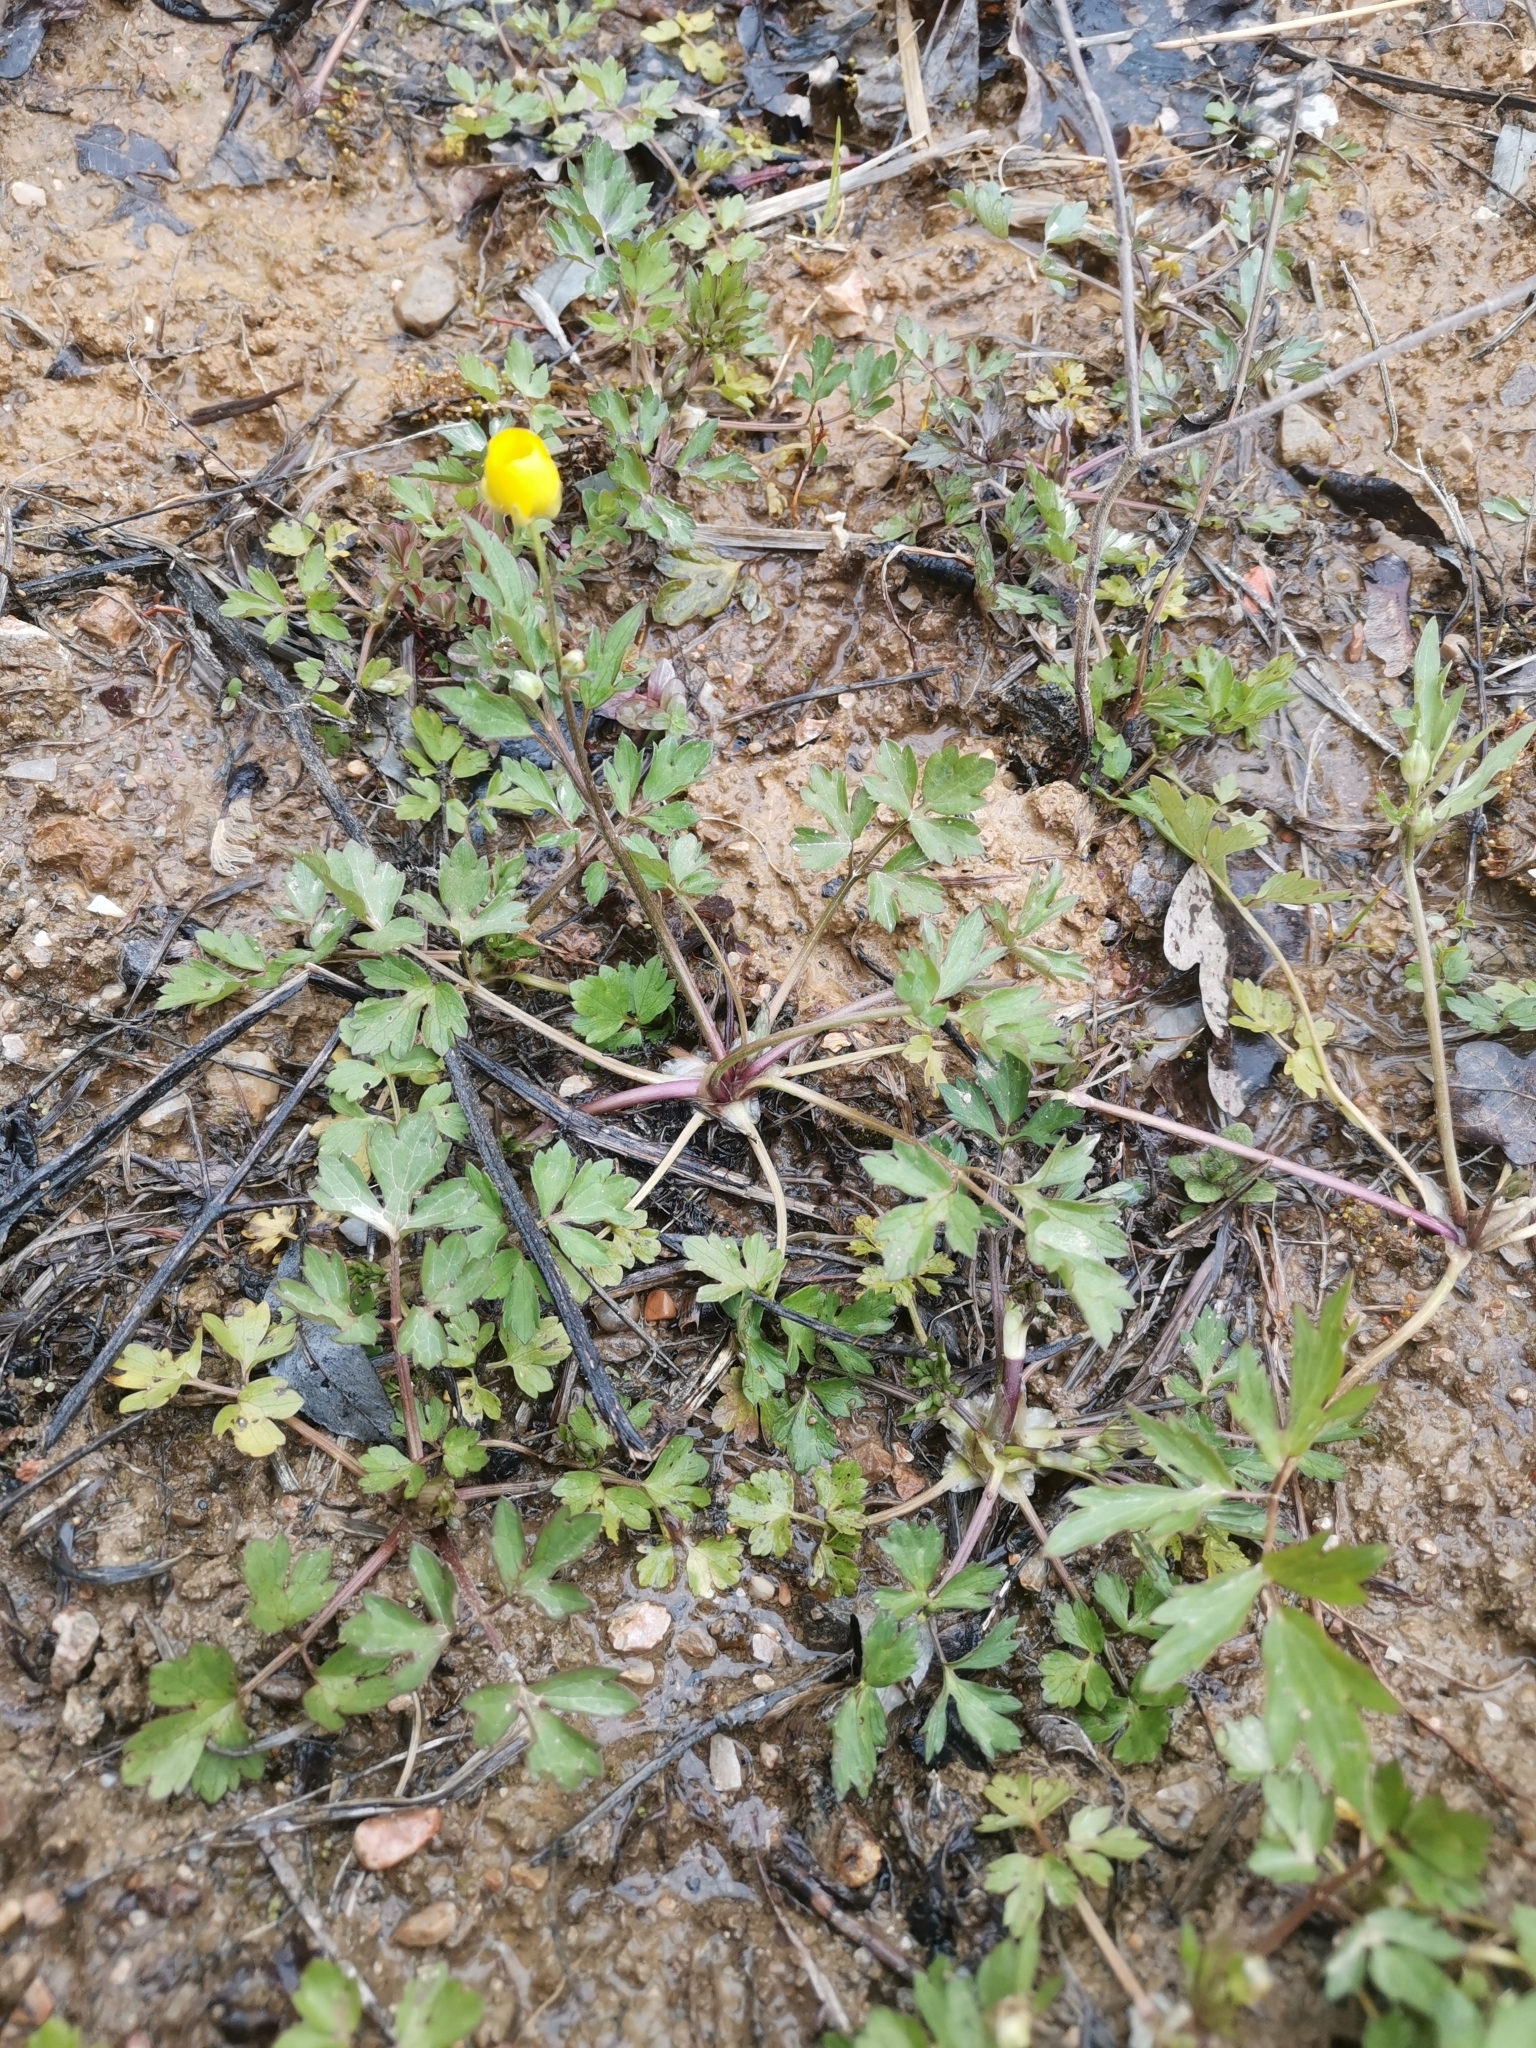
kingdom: Plantae
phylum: Tracheophyta
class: Magnoliopsida
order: Ranunculales
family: Ranunculaceae
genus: Ranunculus
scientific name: Ranunculus repens
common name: Creeping buttercup
